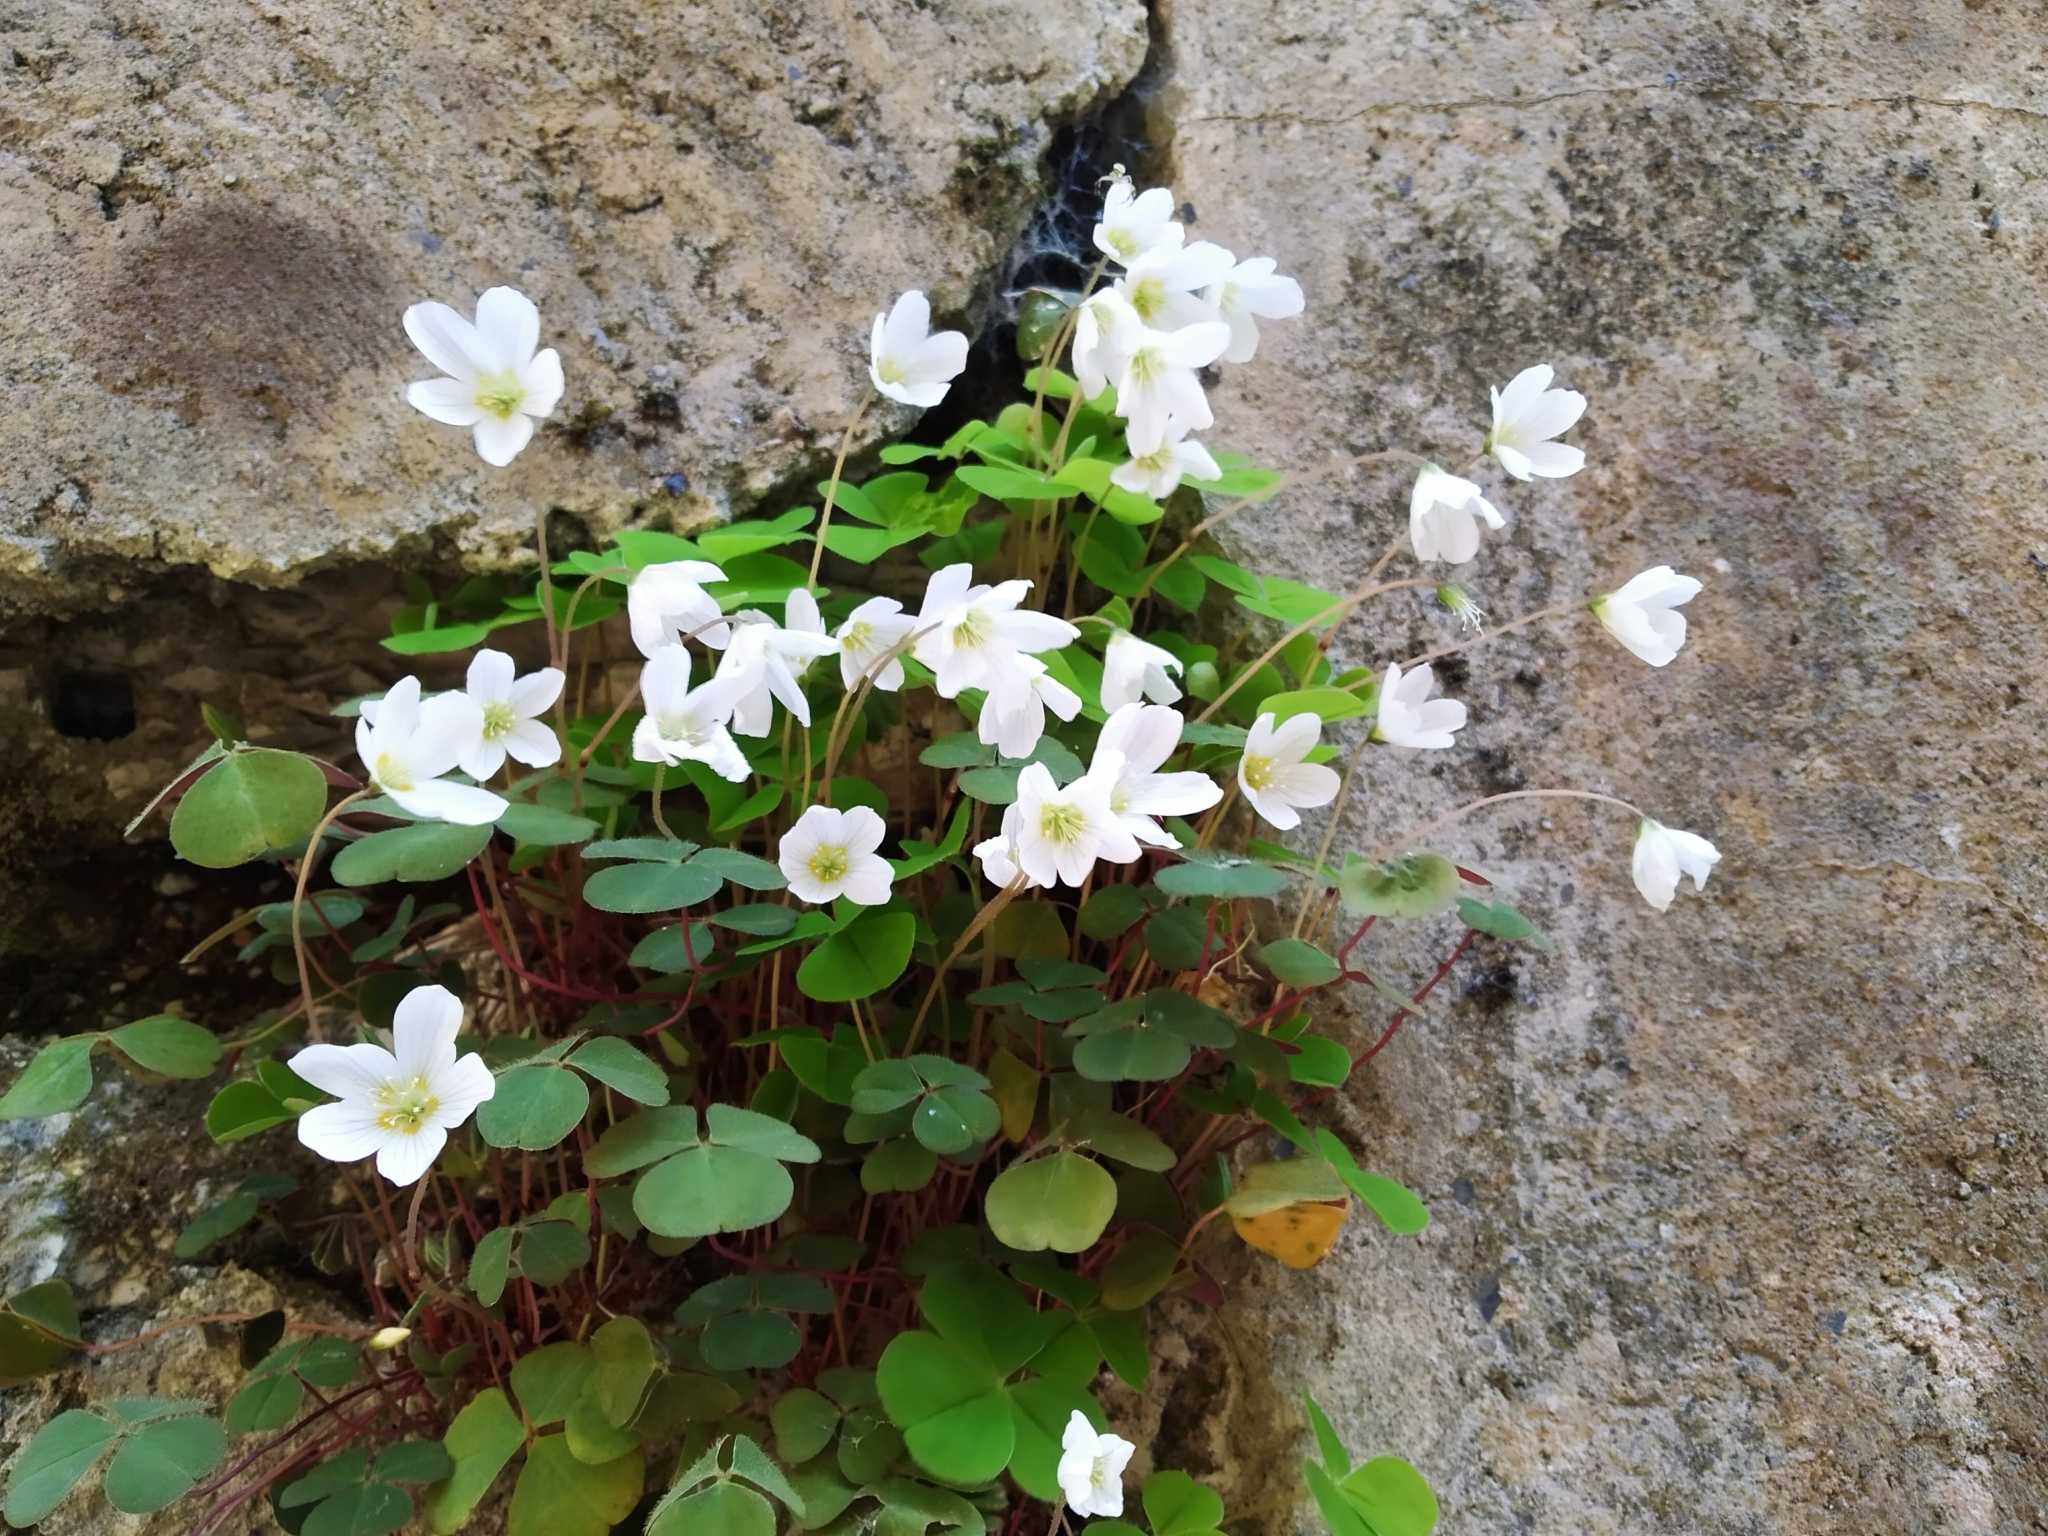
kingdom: Plantae
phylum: Tracheophyta
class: Magnoliopsida
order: Oxalidales
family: Oxalidaceae
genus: Oxalis
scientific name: Oxalis acetosella
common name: Wood-sorrel
